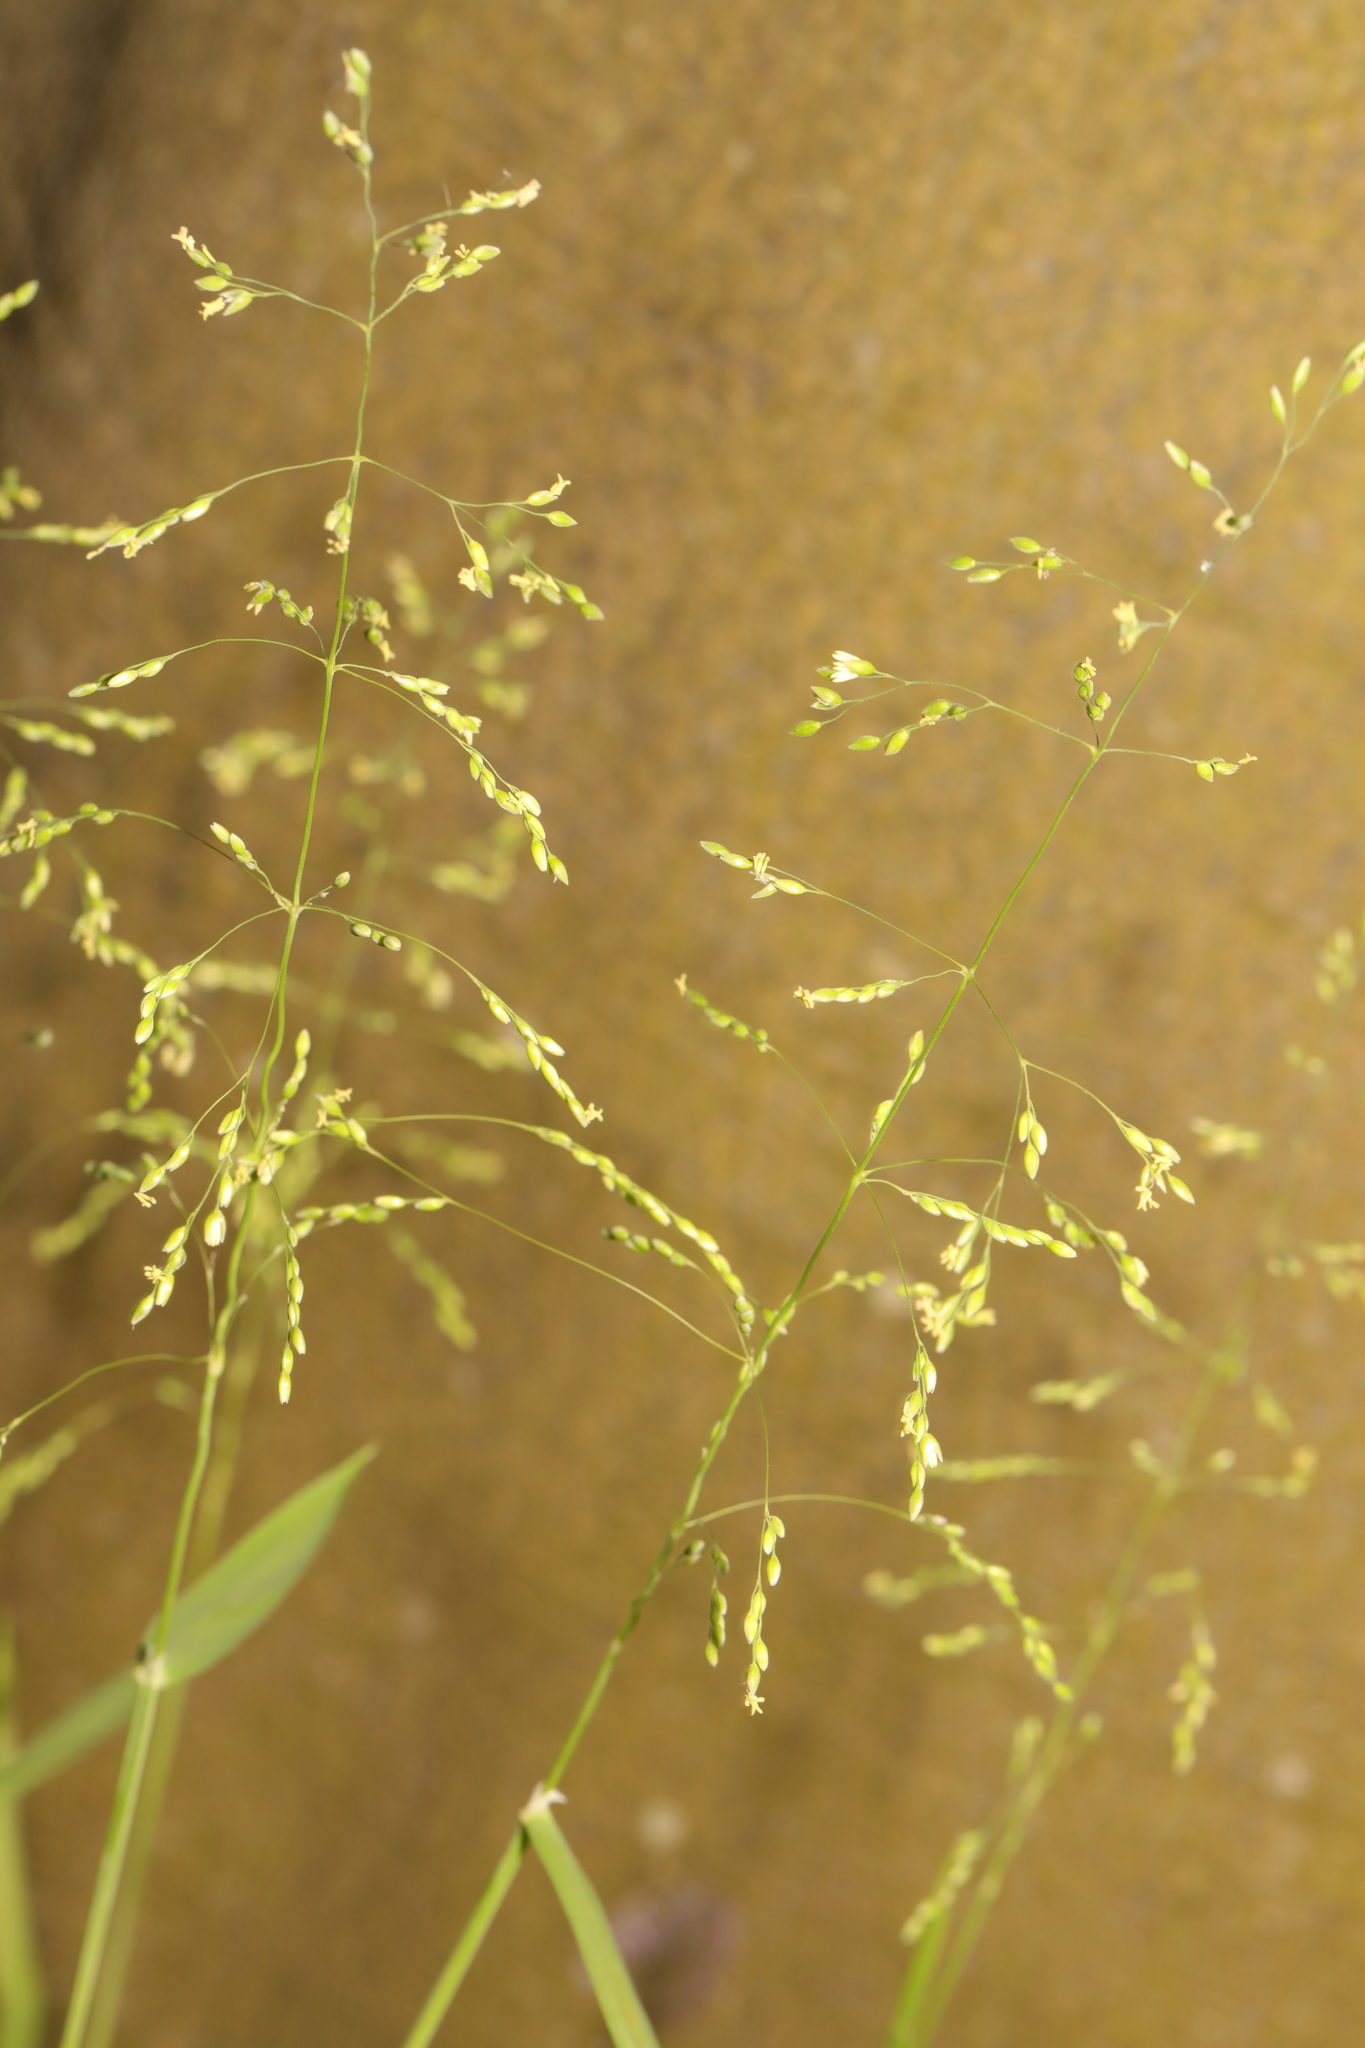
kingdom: Plantae
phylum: Tracheophyta
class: Liliopsida
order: Poales
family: Poaceae
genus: Milium
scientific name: Milium effusum
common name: Wood millet
